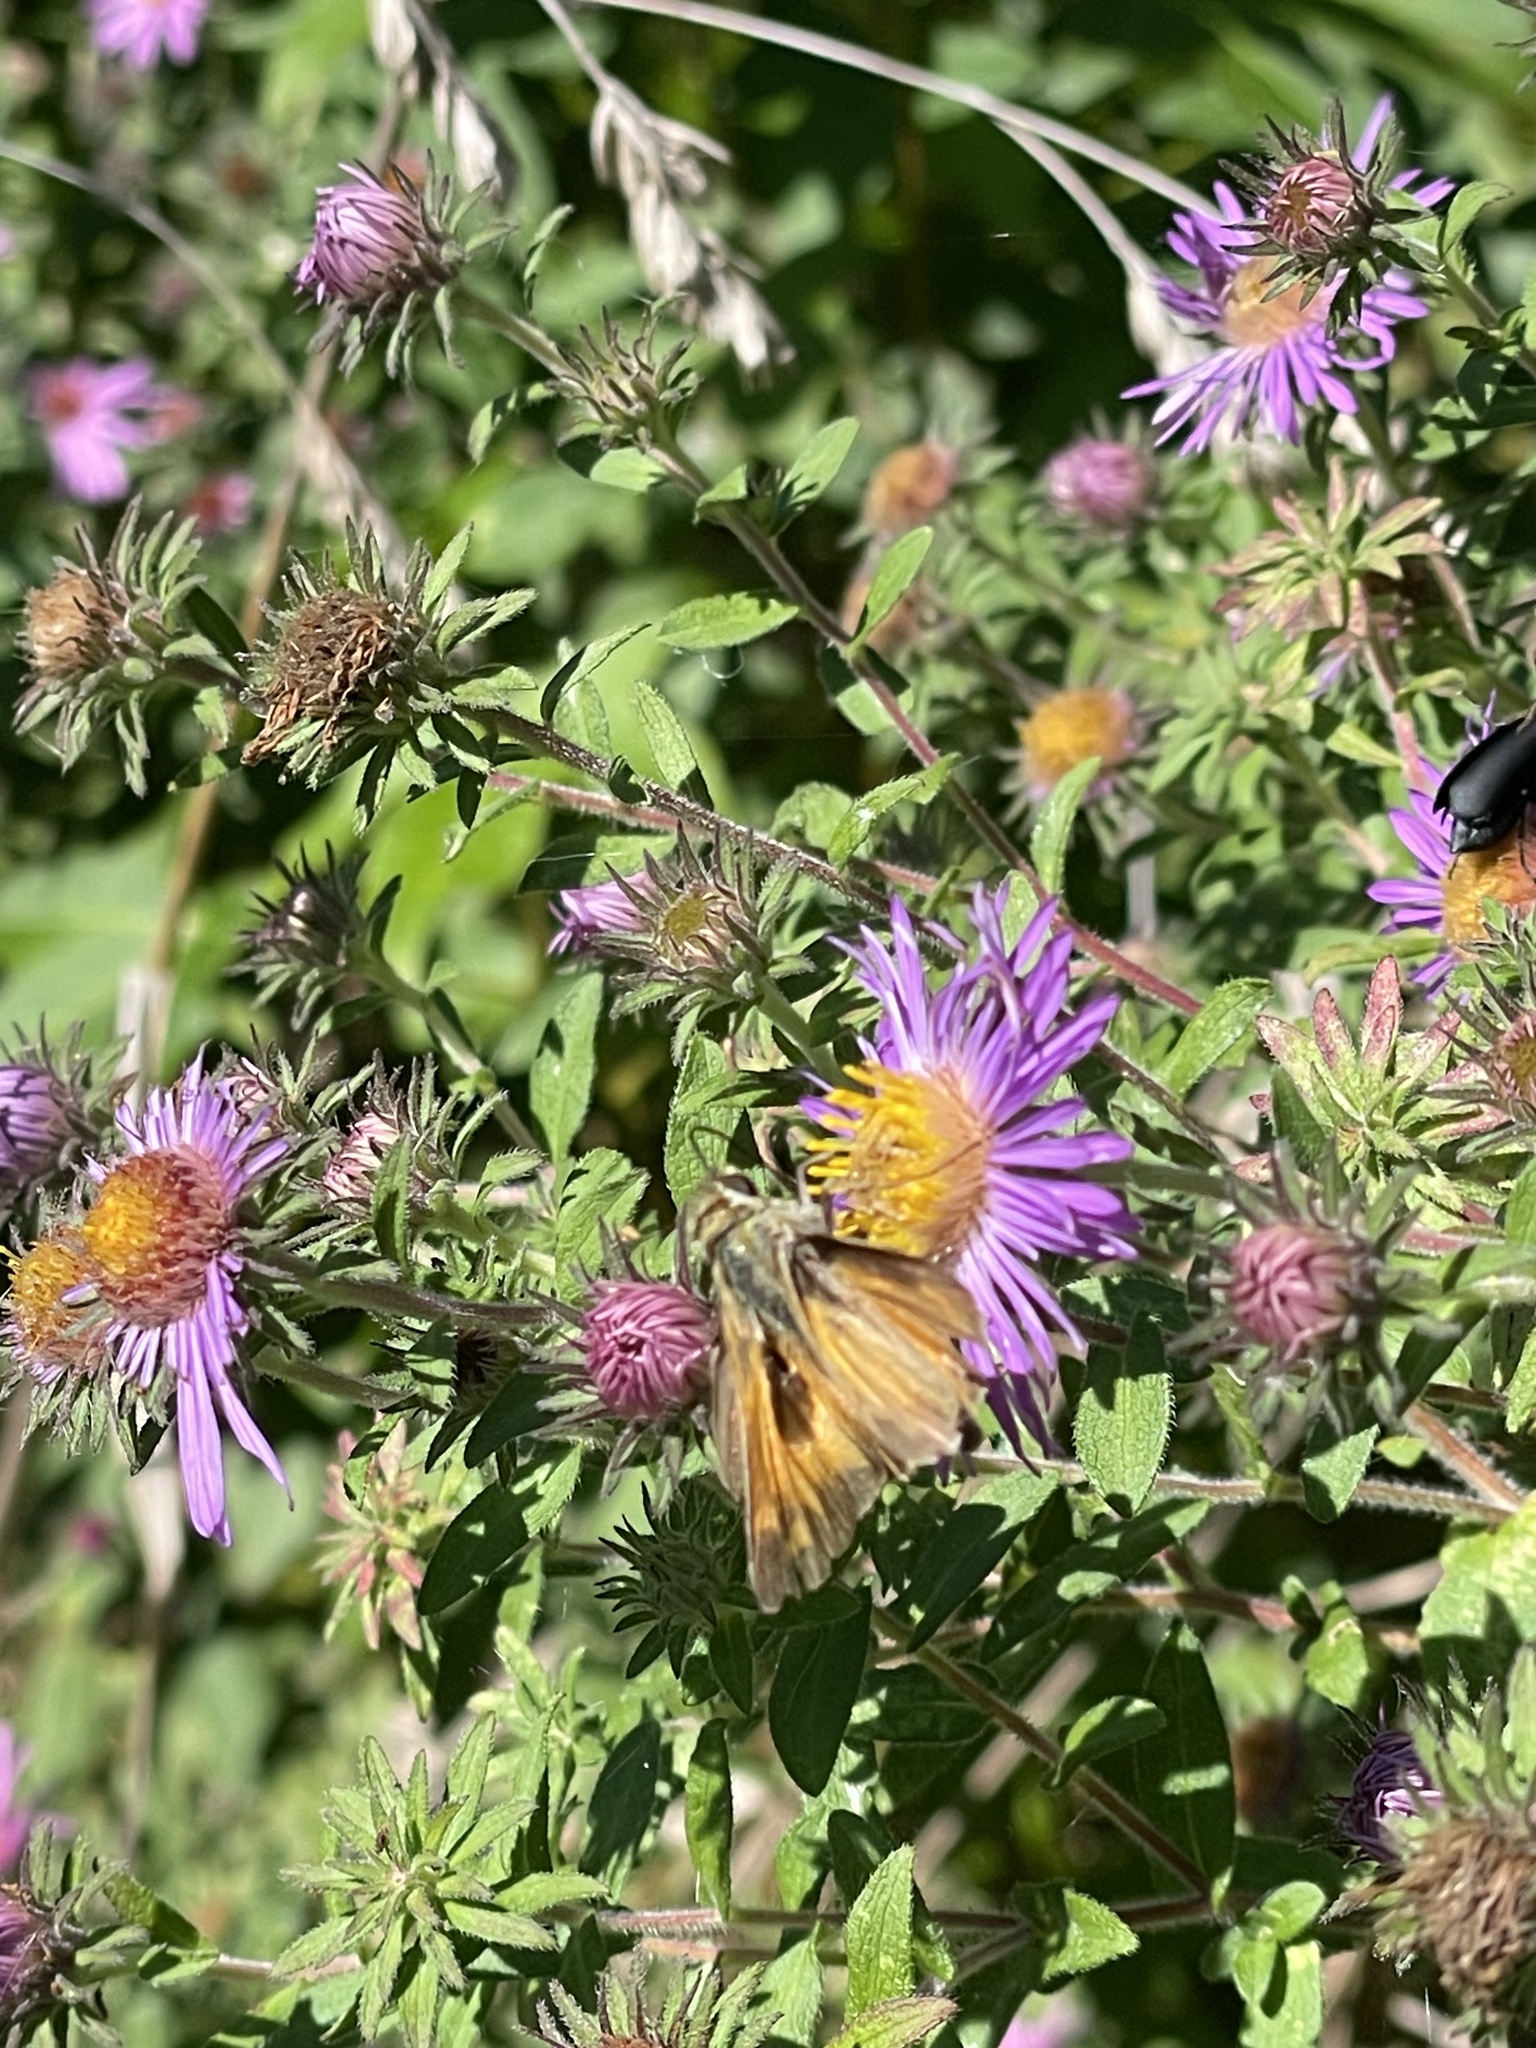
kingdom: Animalia
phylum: Arthropoda
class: Insecta
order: Lepidoptera
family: Hesperiidae
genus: Atalopedes
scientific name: Atalopedes
